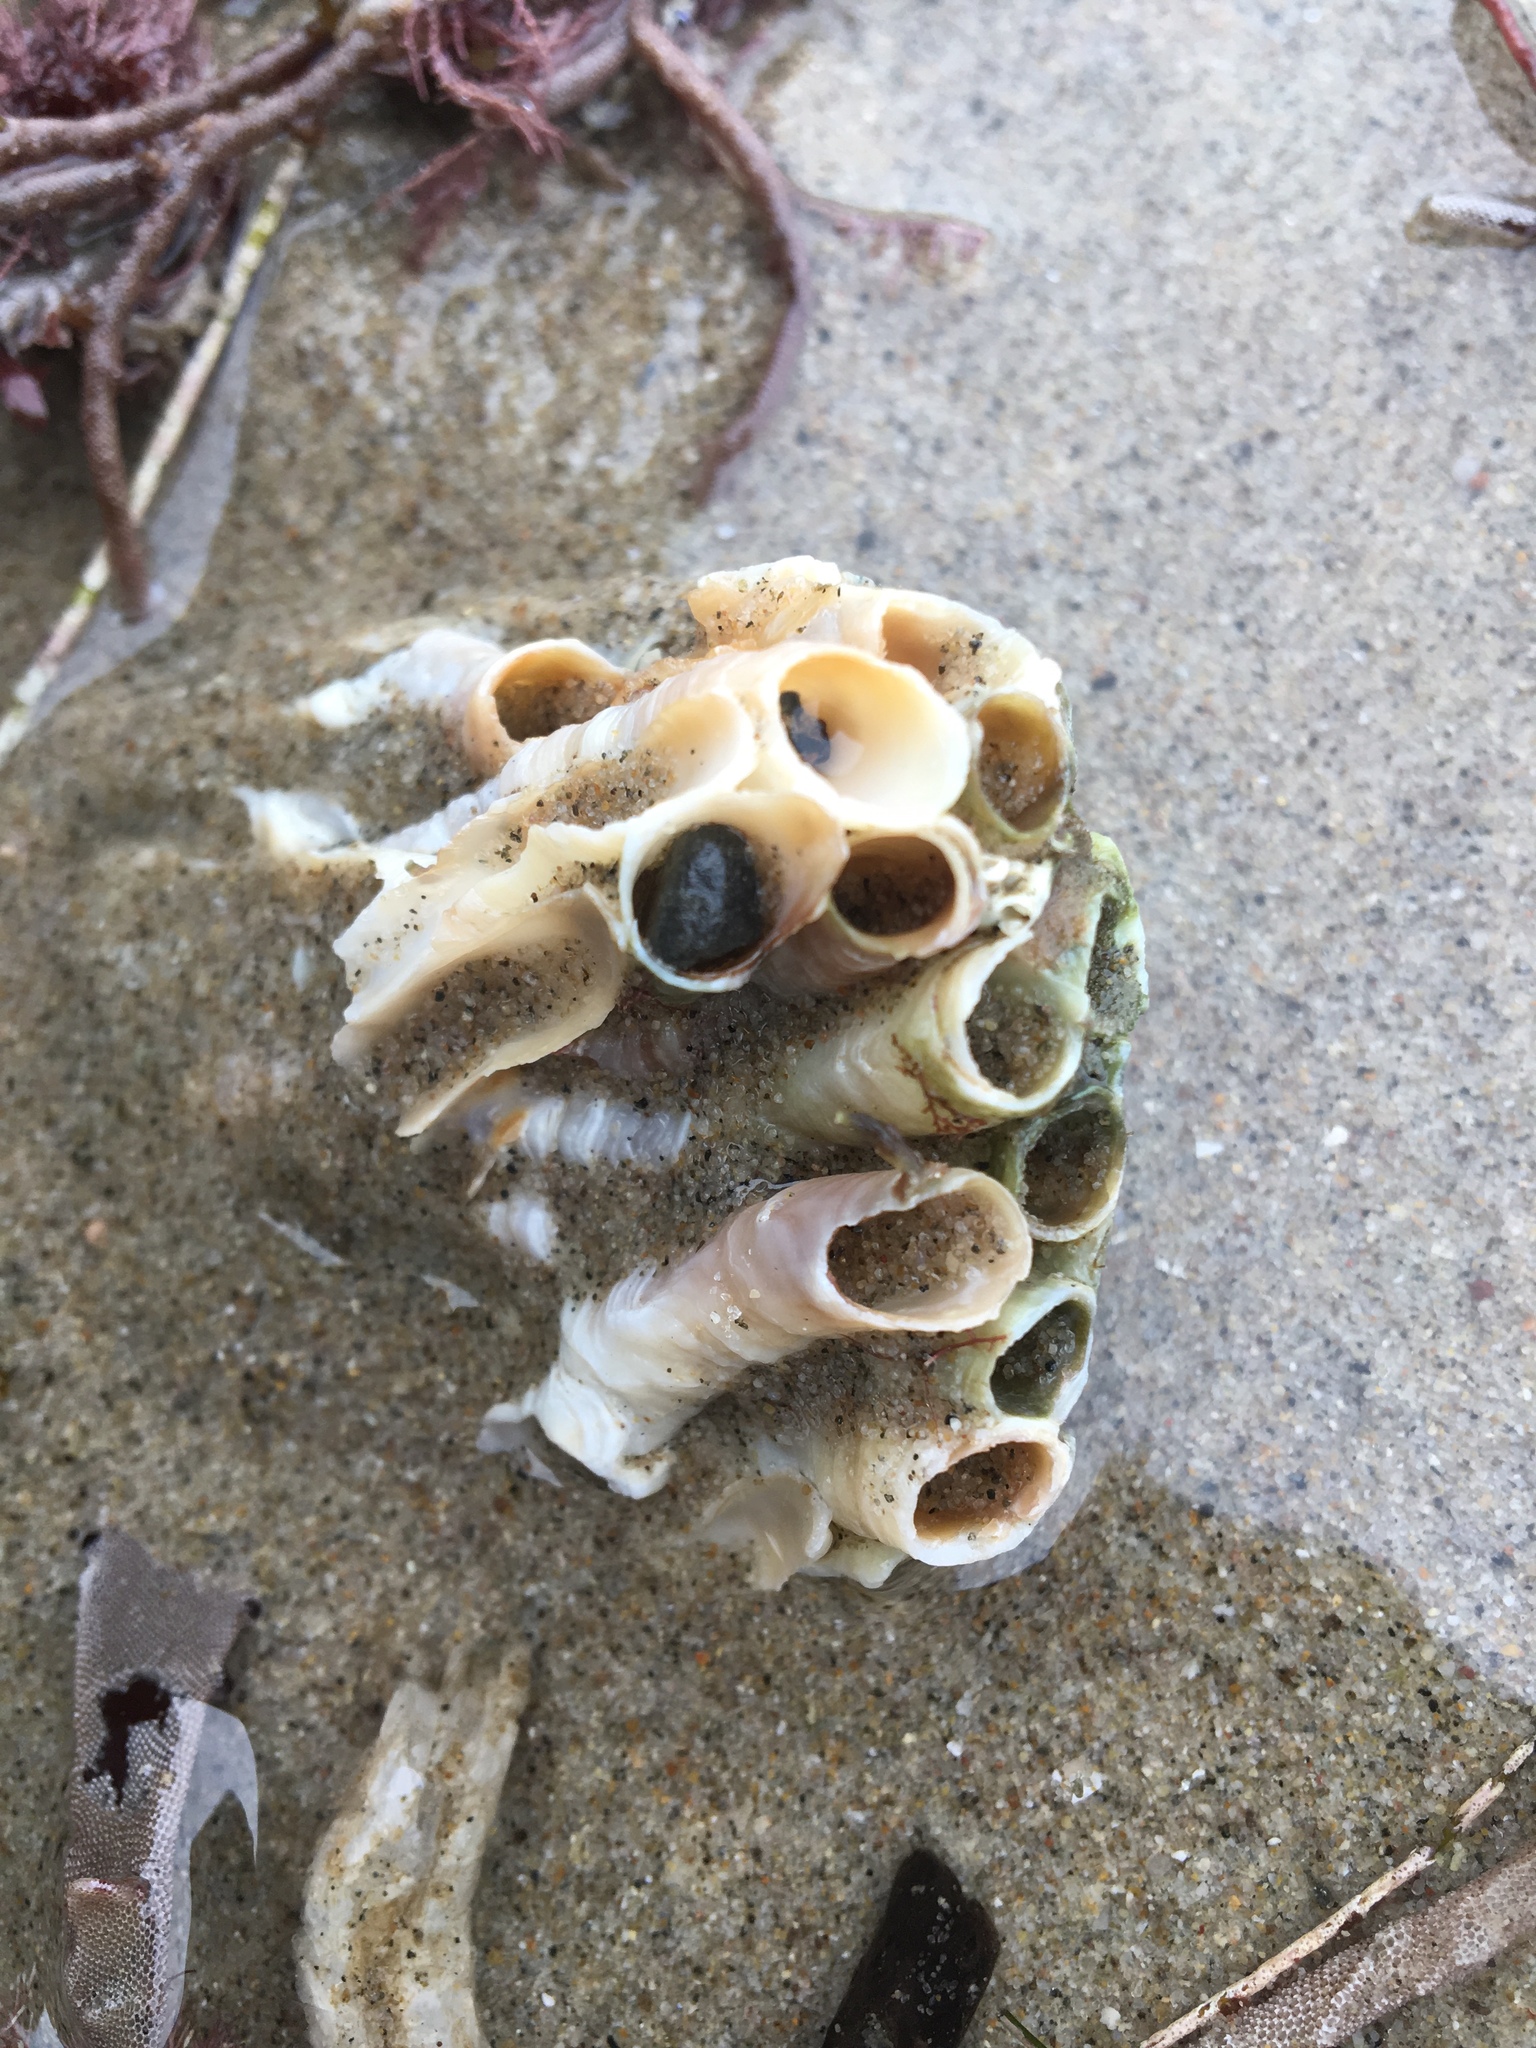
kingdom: Animalia
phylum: Mollusca
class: Gastropoda
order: Littorinimorpha
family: Vermetidae
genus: Thylacodes
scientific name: Thylacodes squamigerus
